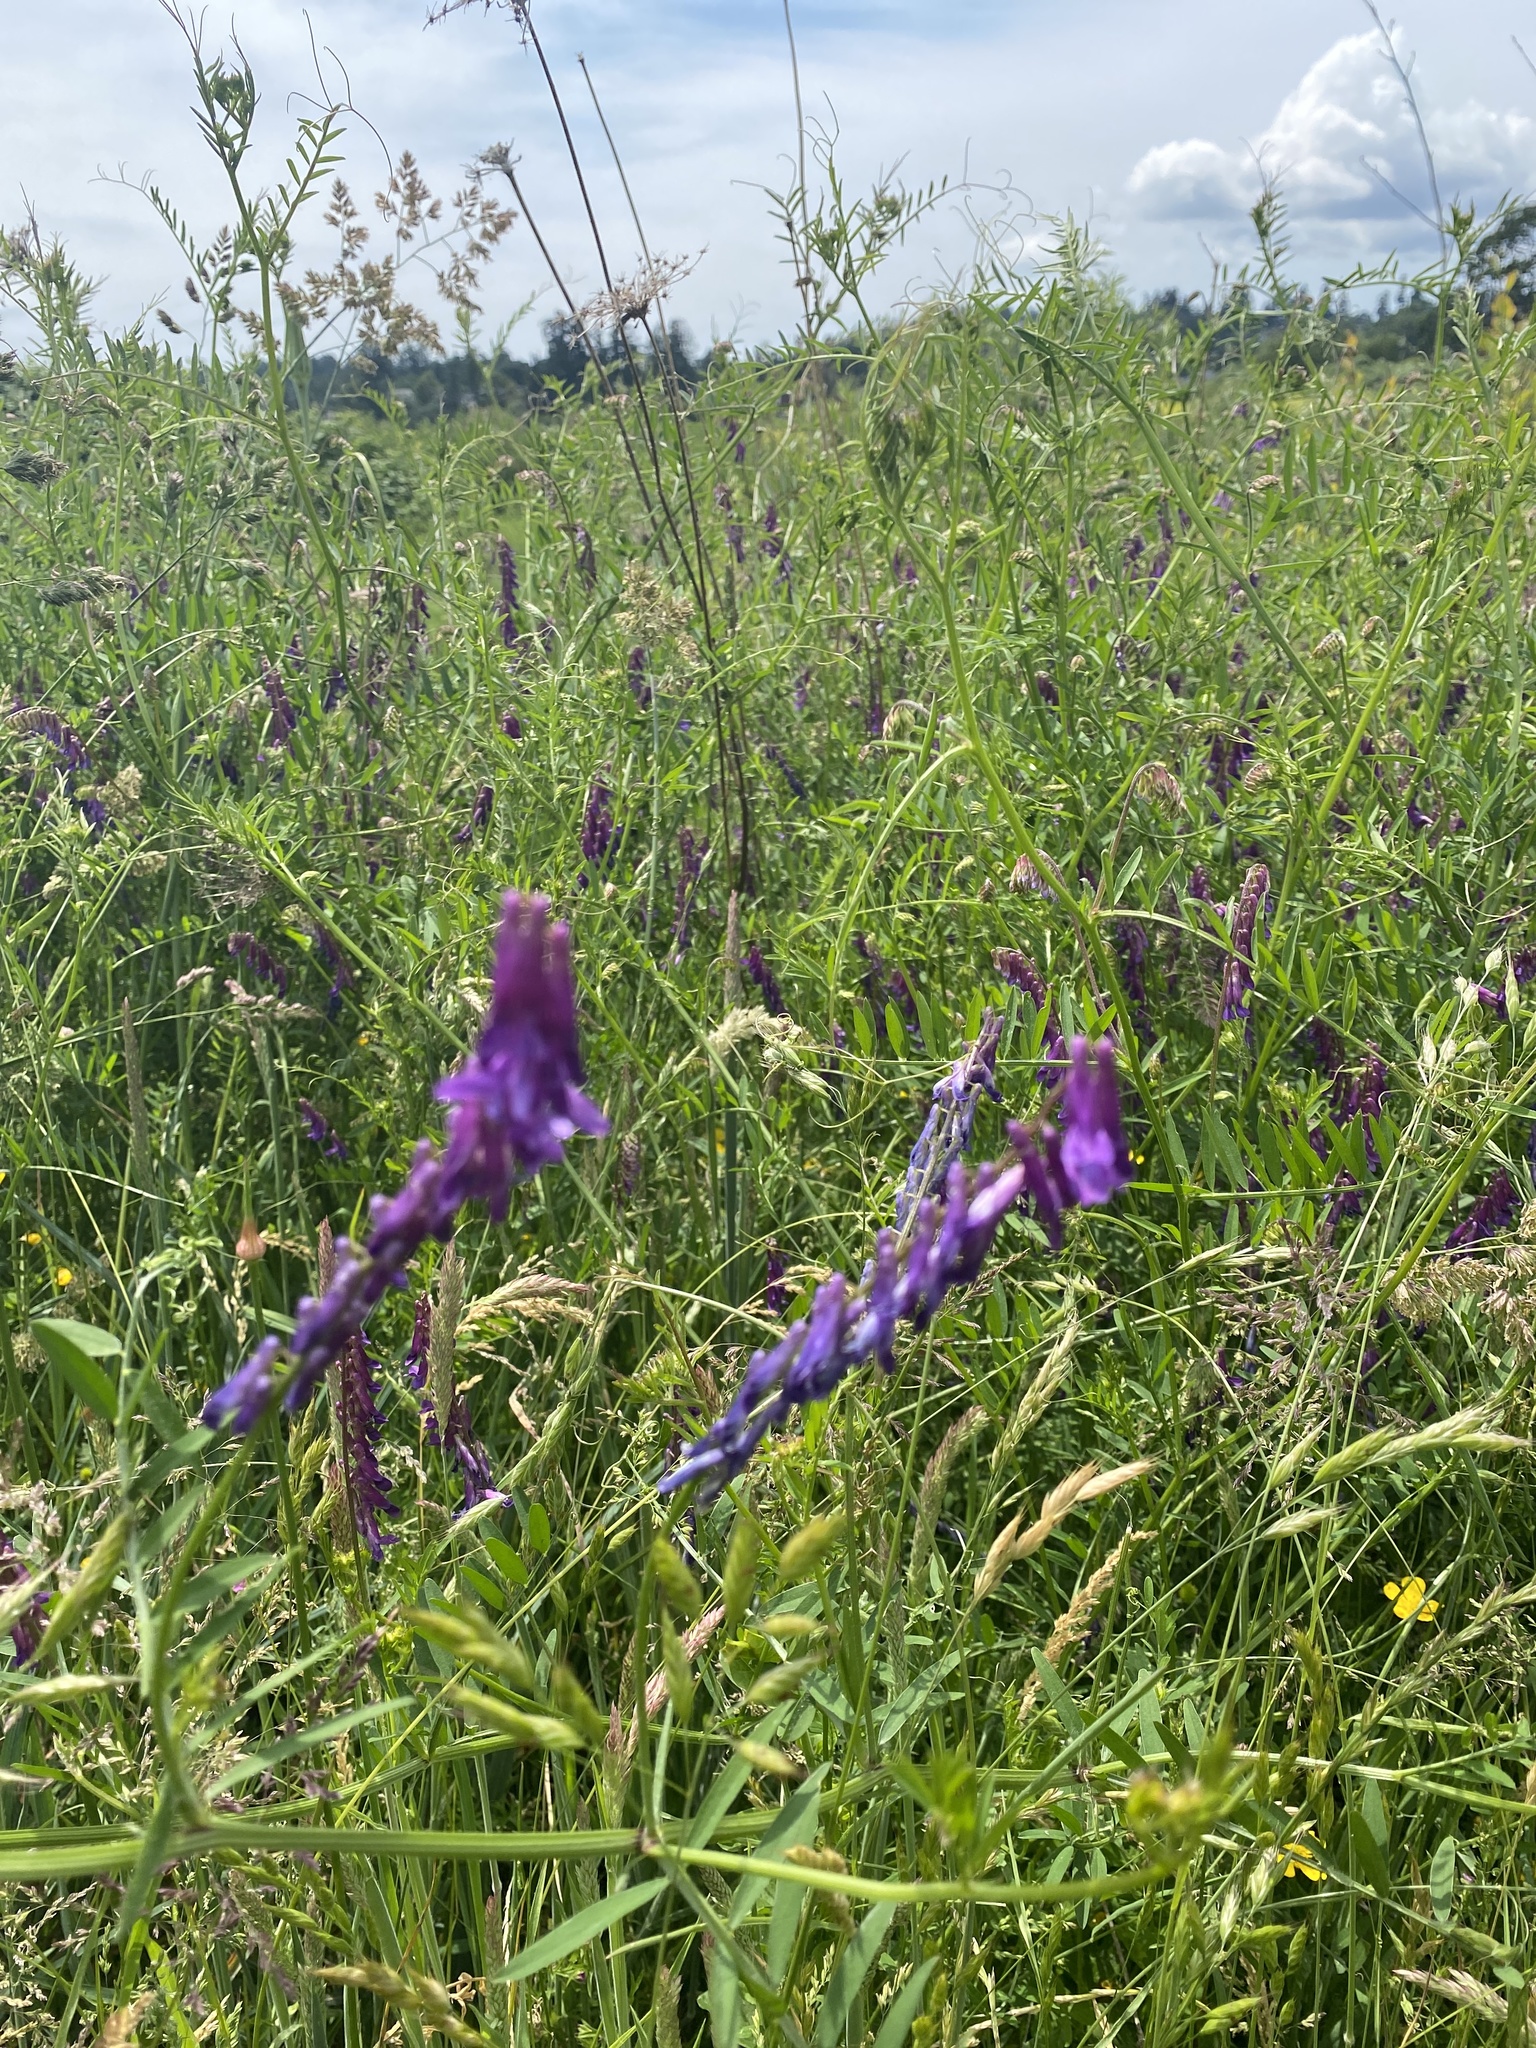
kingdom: Plantae
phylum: Tracheophyta
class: Magnoliopsida
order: Fabales
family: Fabaceae
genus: Vicia
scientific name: Vicia villosa
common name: Fodder vetch
